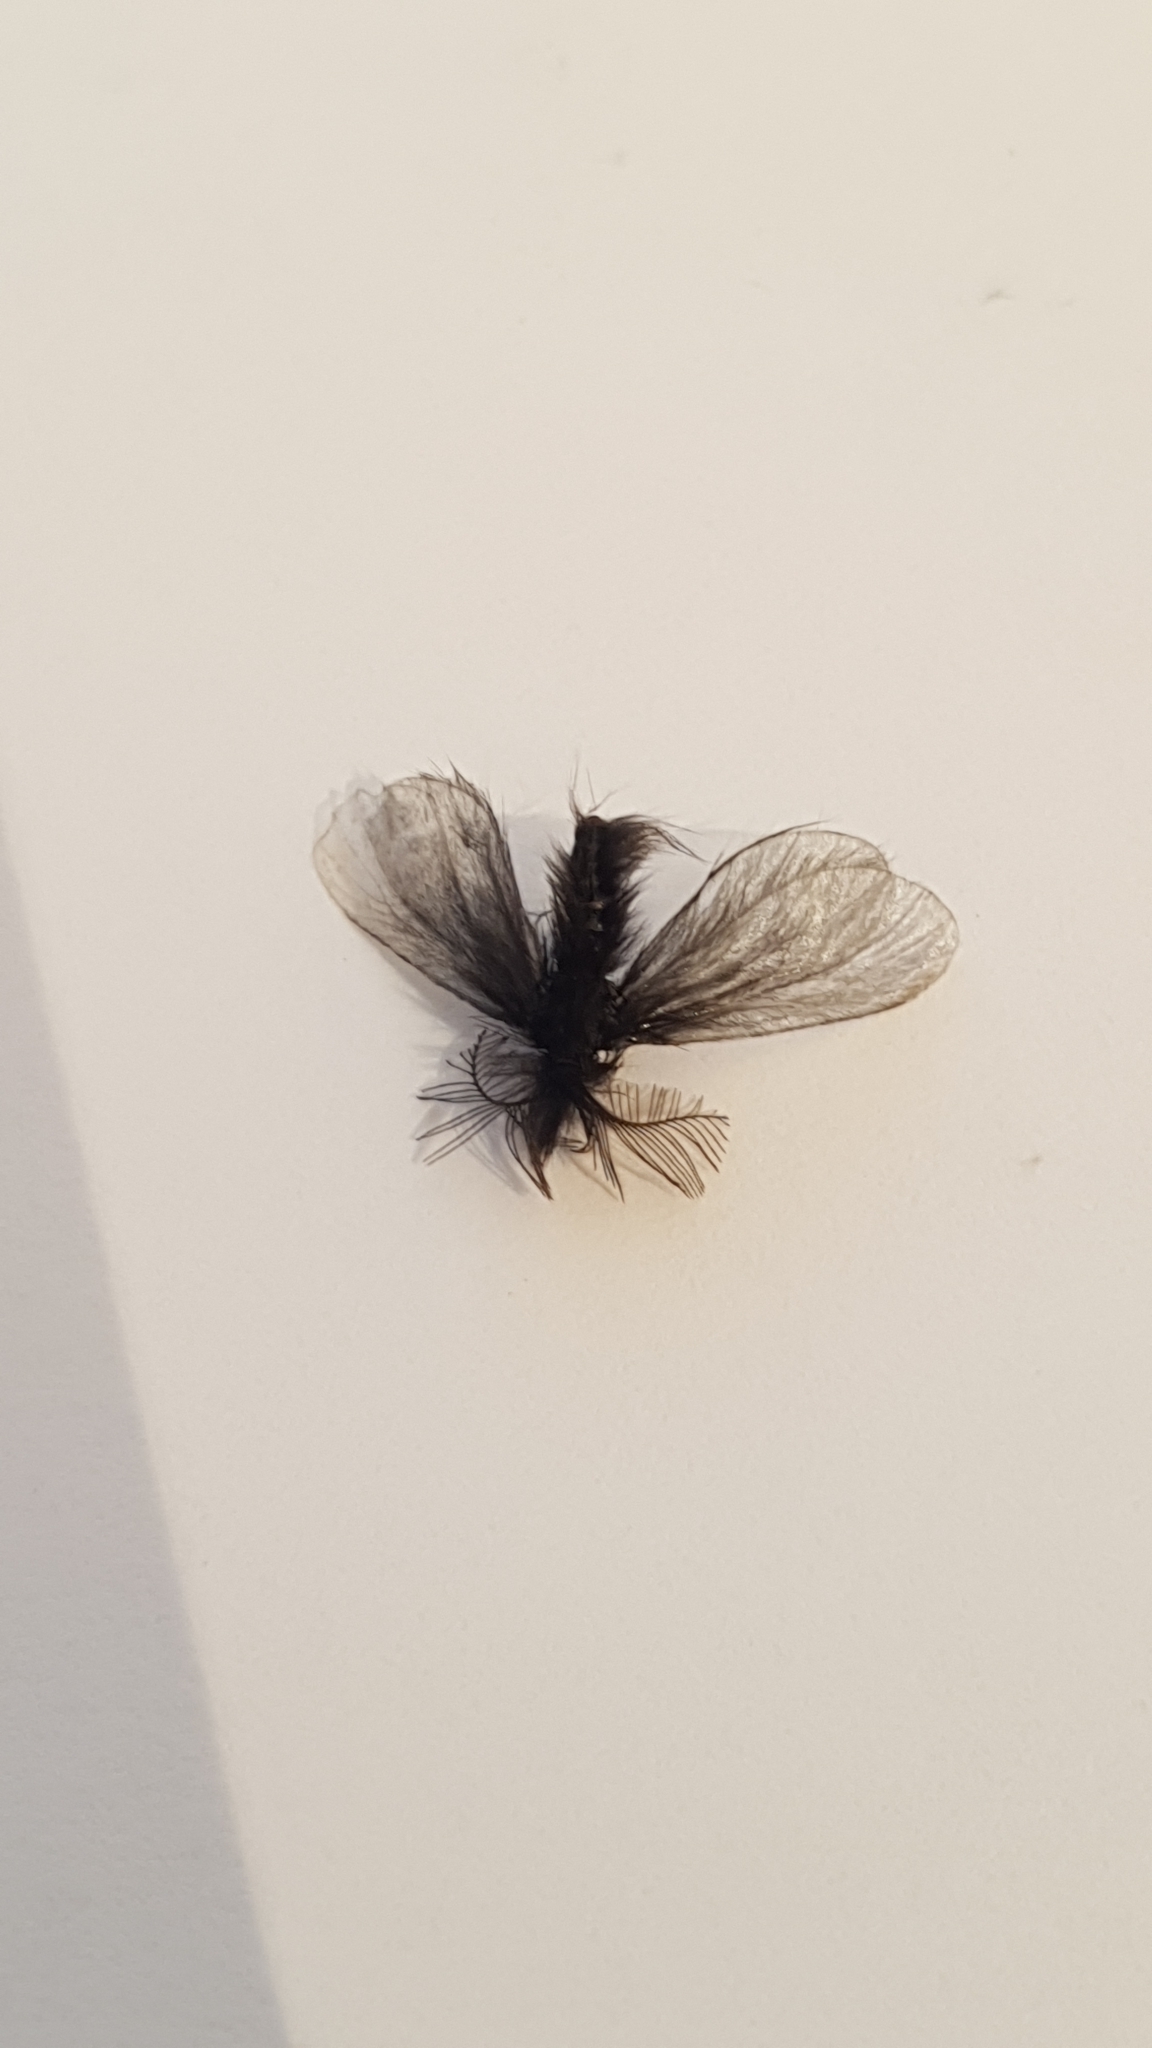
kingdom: Animalia
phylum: Arthropoda
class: Insecta
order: Lepidoptera
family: Psychidae
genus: Ptilocephala
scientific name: Ptilocephala plumifera
